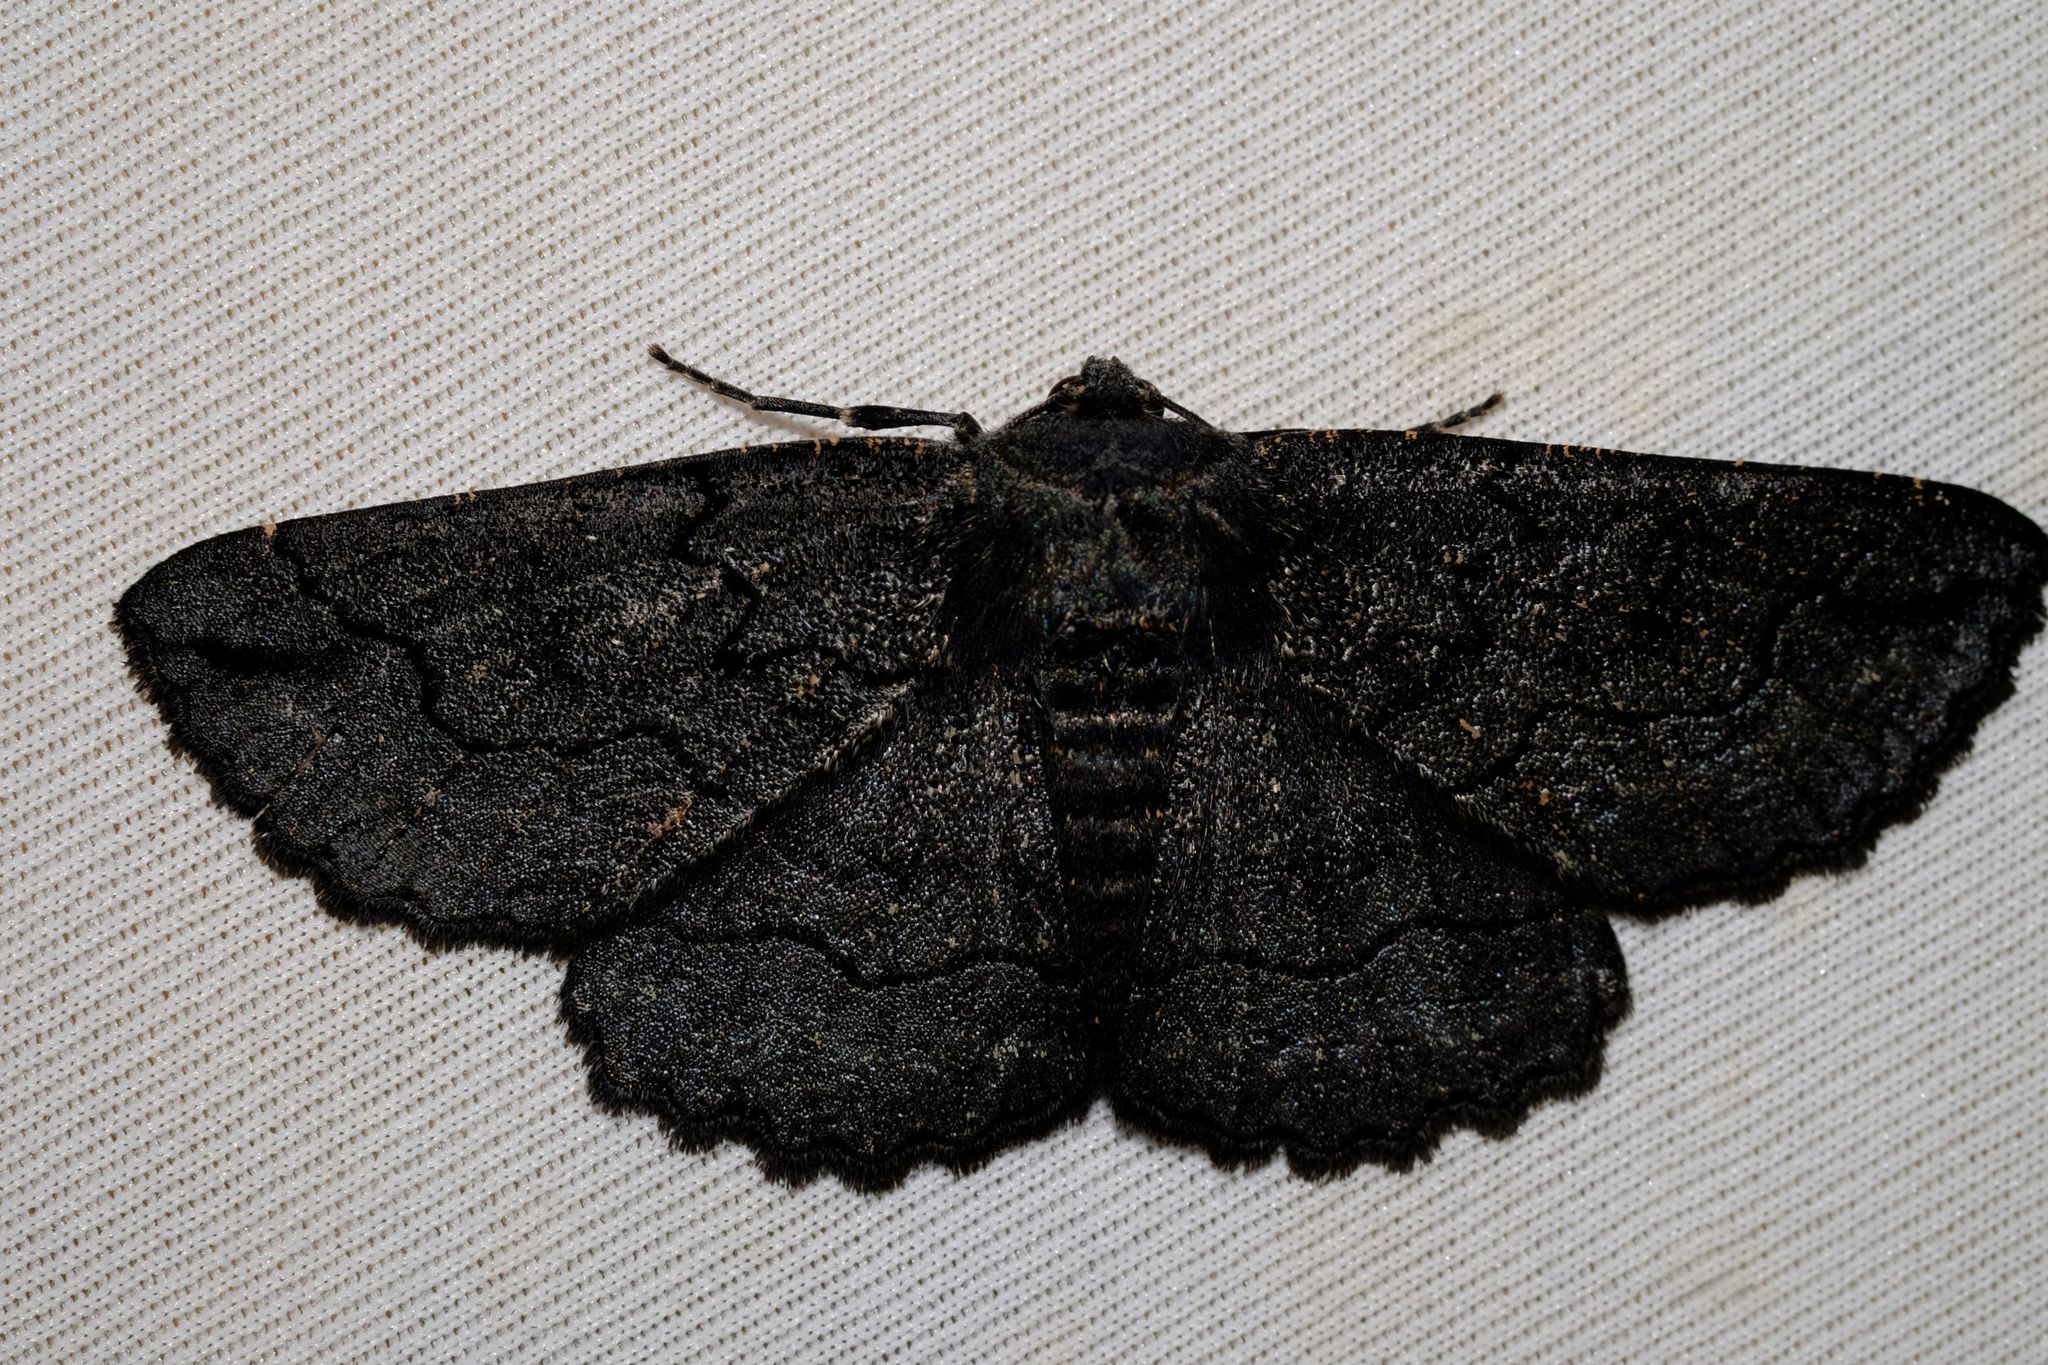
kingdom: Animalia
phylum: Arthropoda
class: Insecta
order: Lepidoptera
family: Geometridae
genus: Melanodes
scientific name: Melanodes anthracitaria
